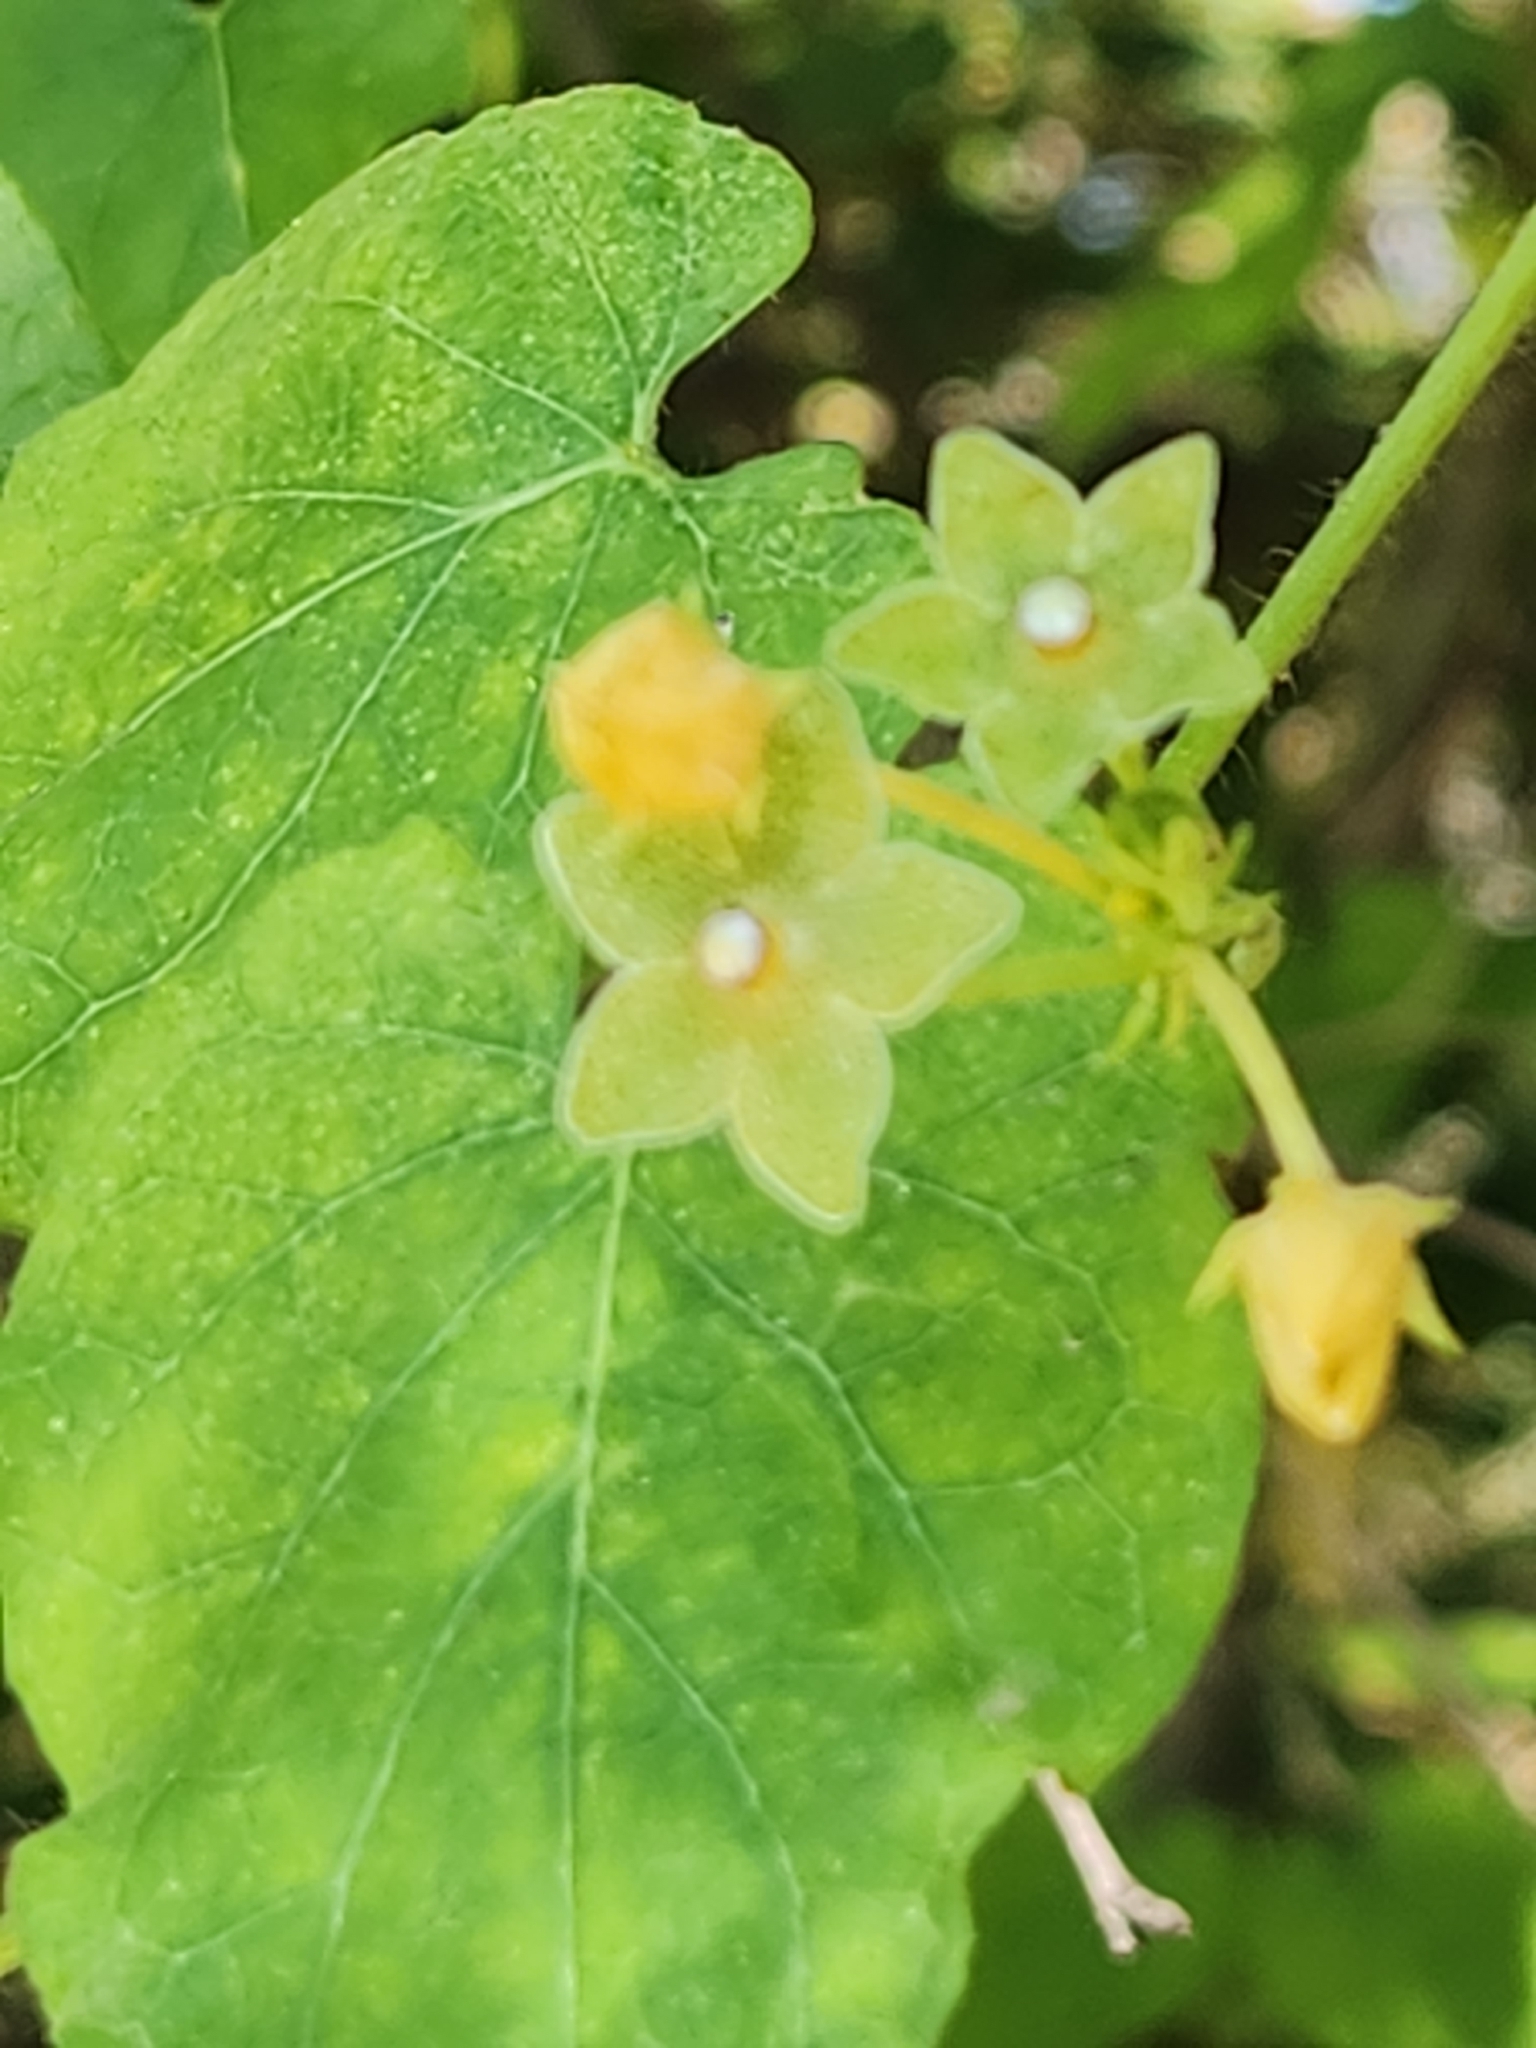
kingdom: Plantae
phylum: Tracheophyta
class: Magnoliopsida
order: Gentianales
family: Apocynaceae
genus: Dictyanthus
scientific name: Dictyanthus reticulatus
